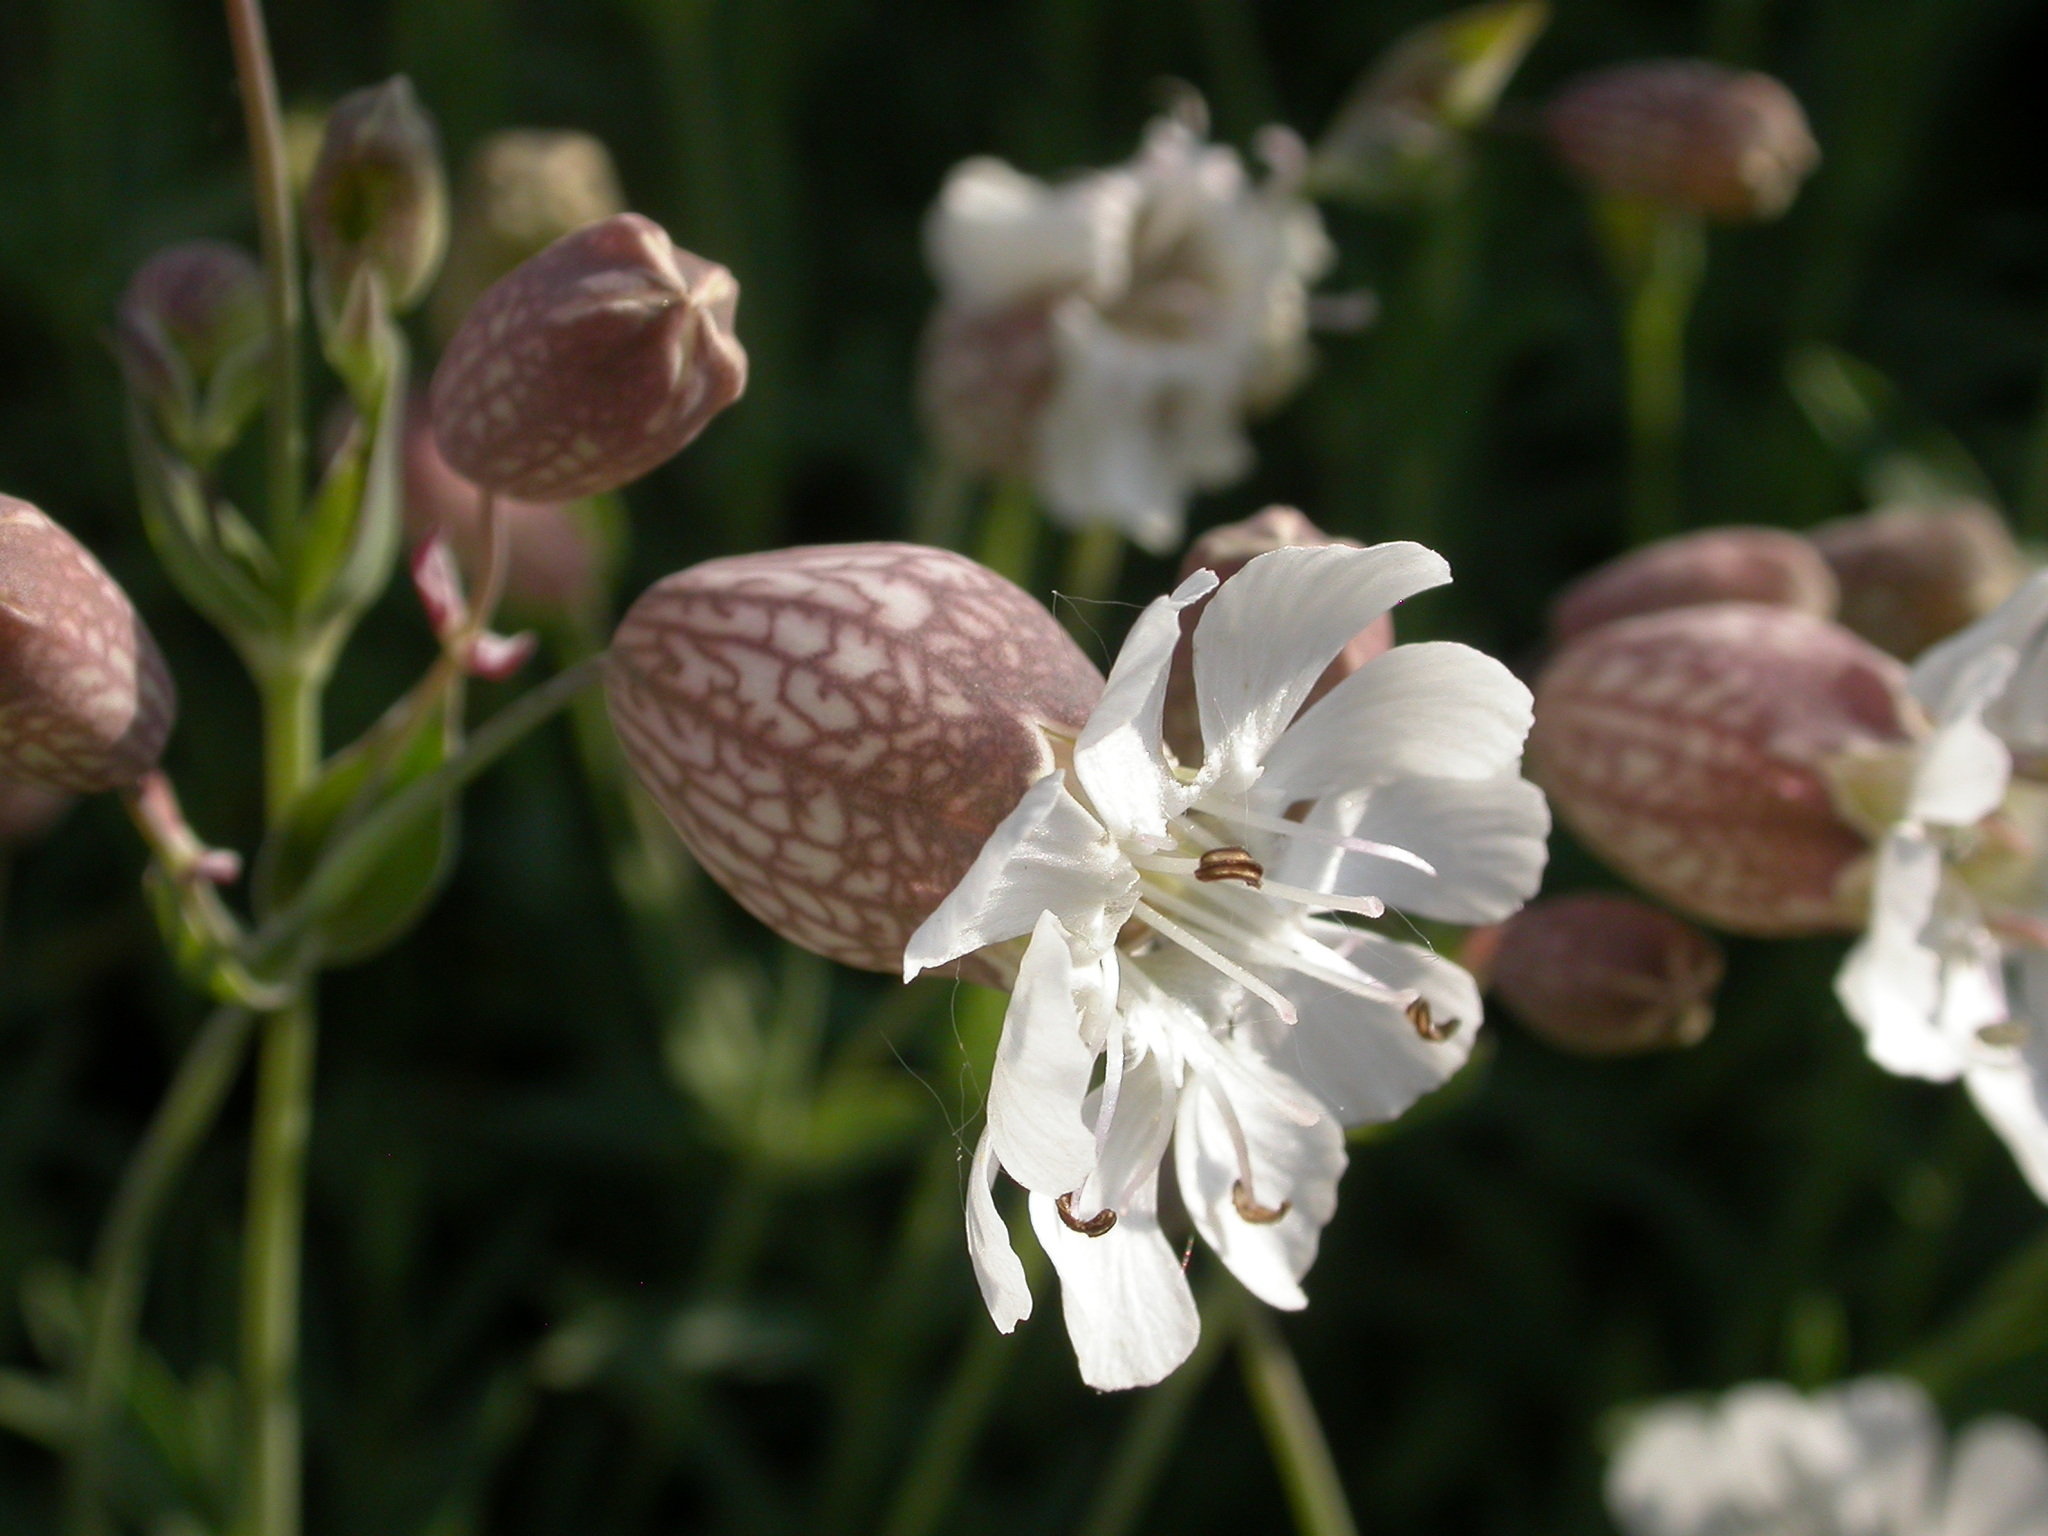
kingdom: Plantae
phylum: Tracheophyta
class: Magnoliopsida
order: Caryophyllales
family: Caryophyllaceae
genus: Silene
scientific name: Silene uniflora
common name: Sea campion
